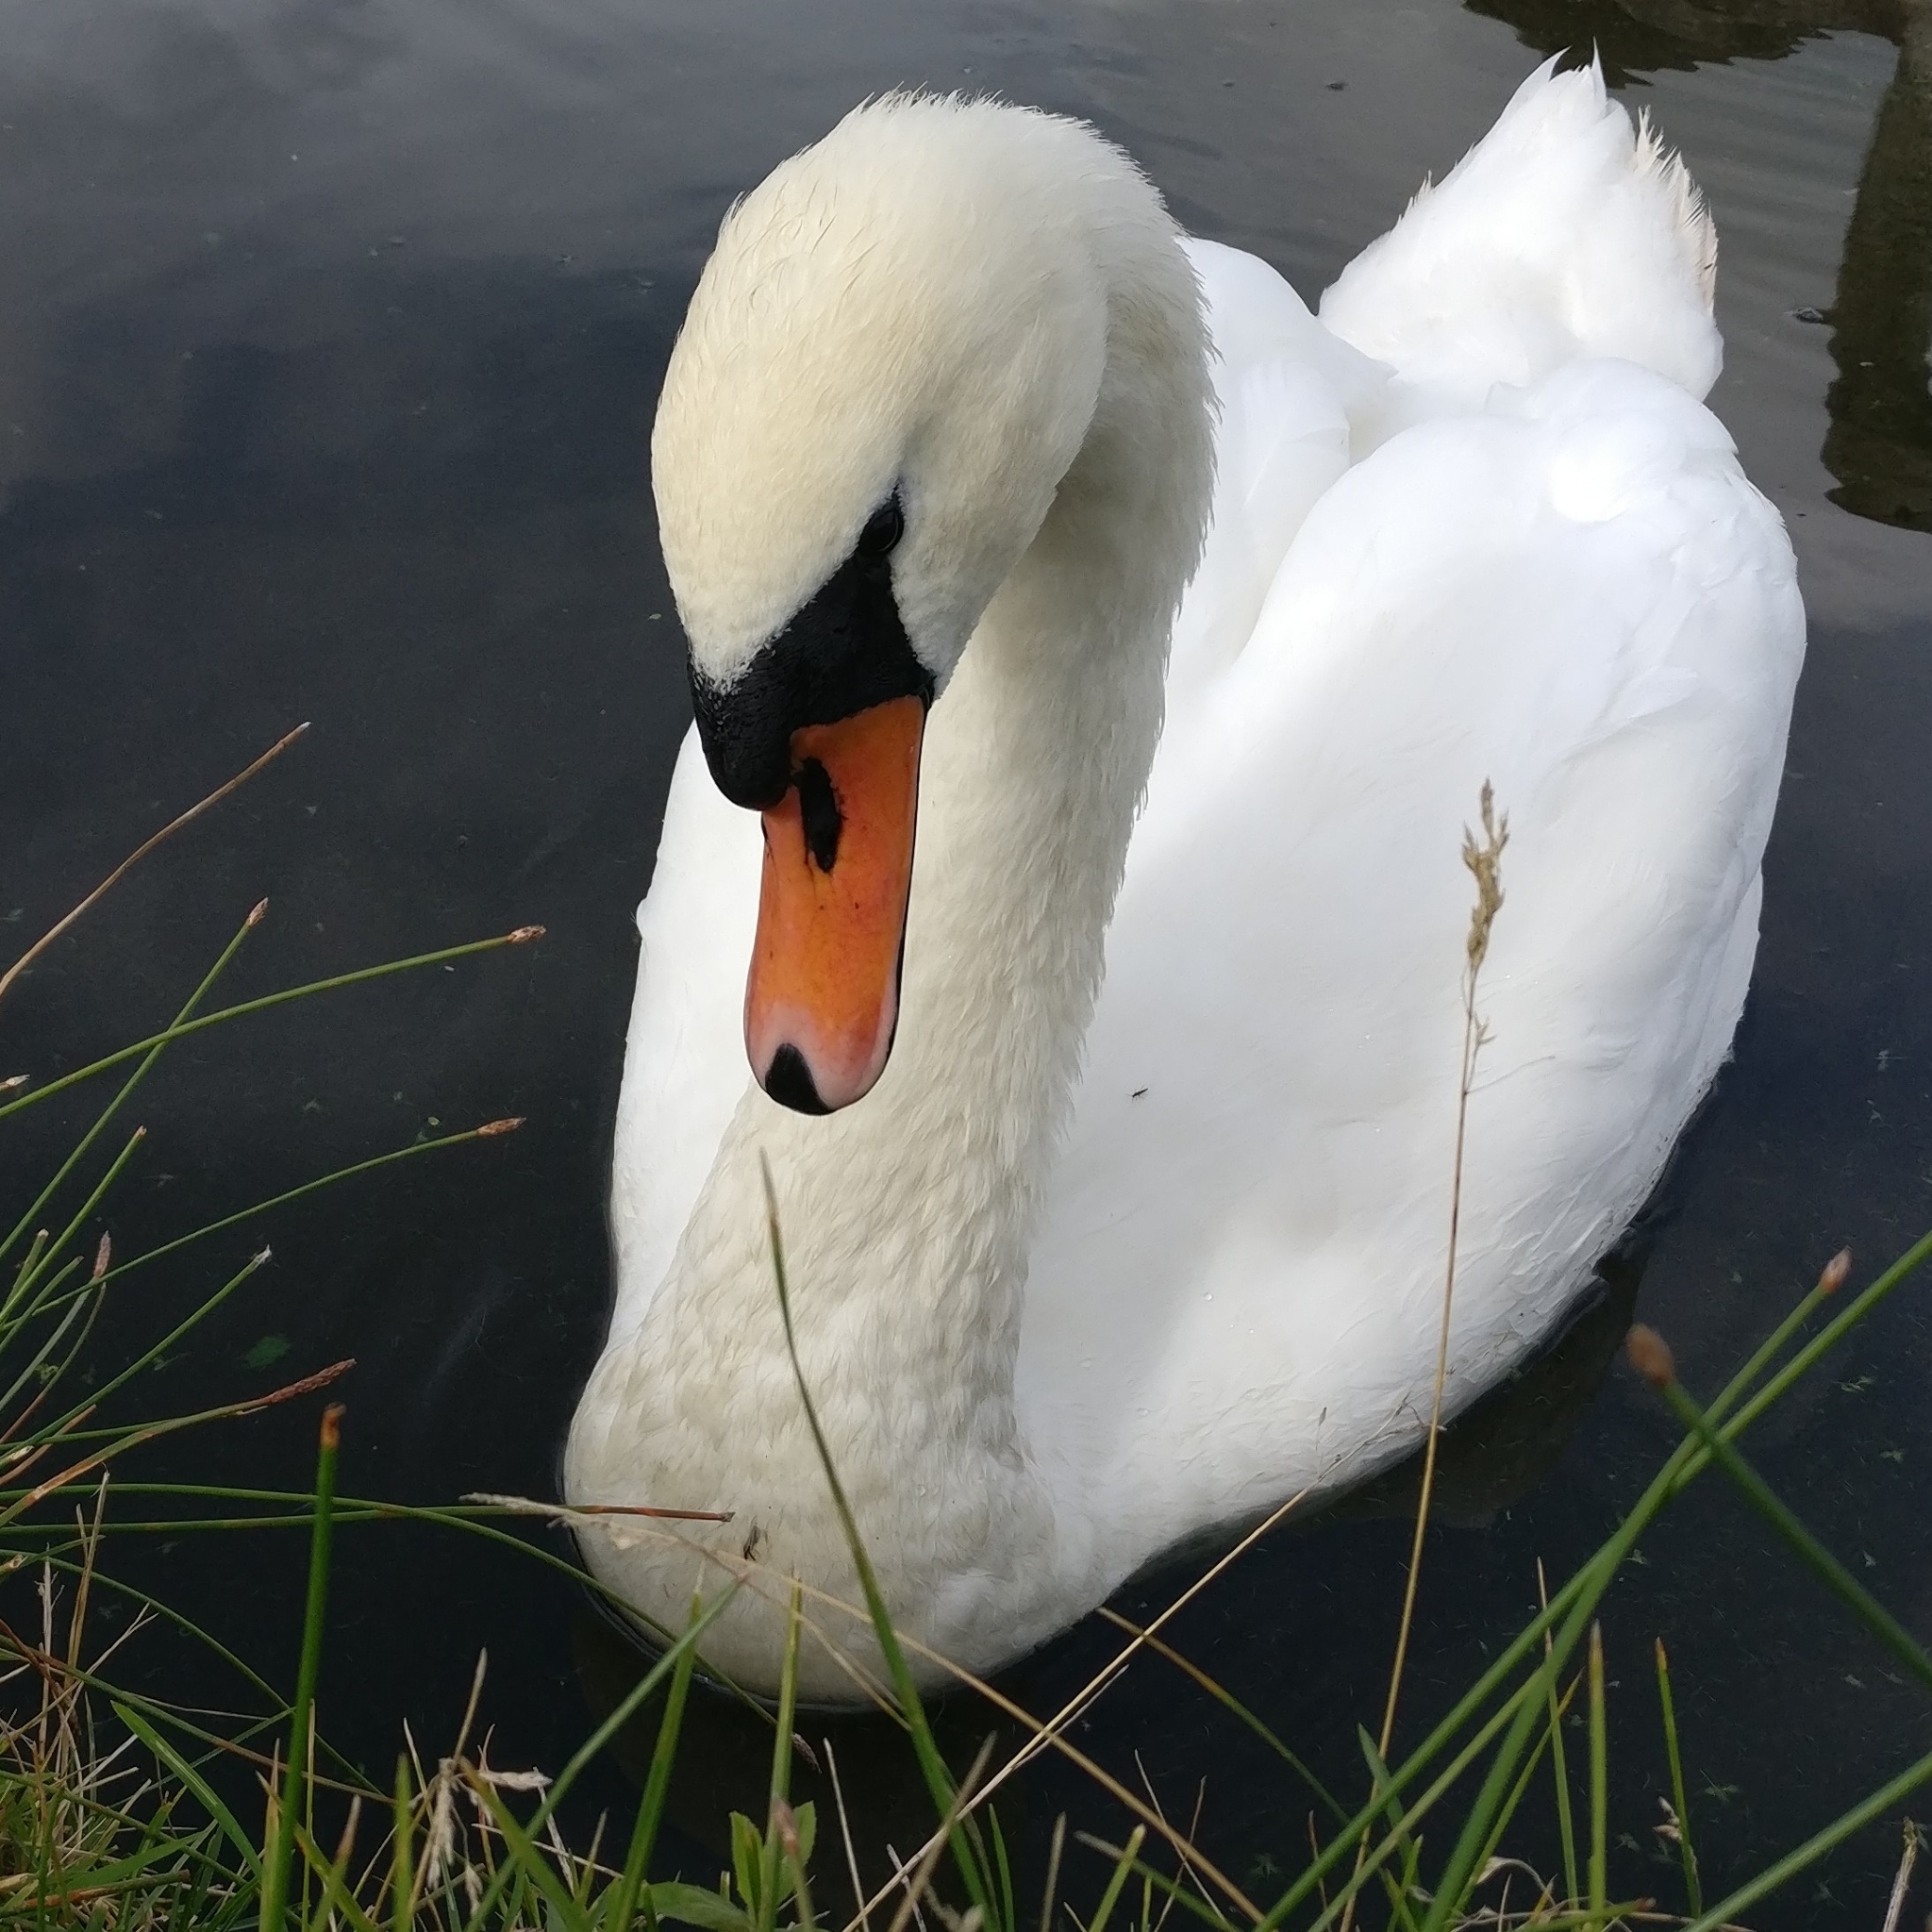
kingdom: Animalia
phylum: Chordata
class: Aves
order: Anseriformes
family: Anatidae
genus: Cygnus
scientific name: Cygnus olor
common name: Mute swan
